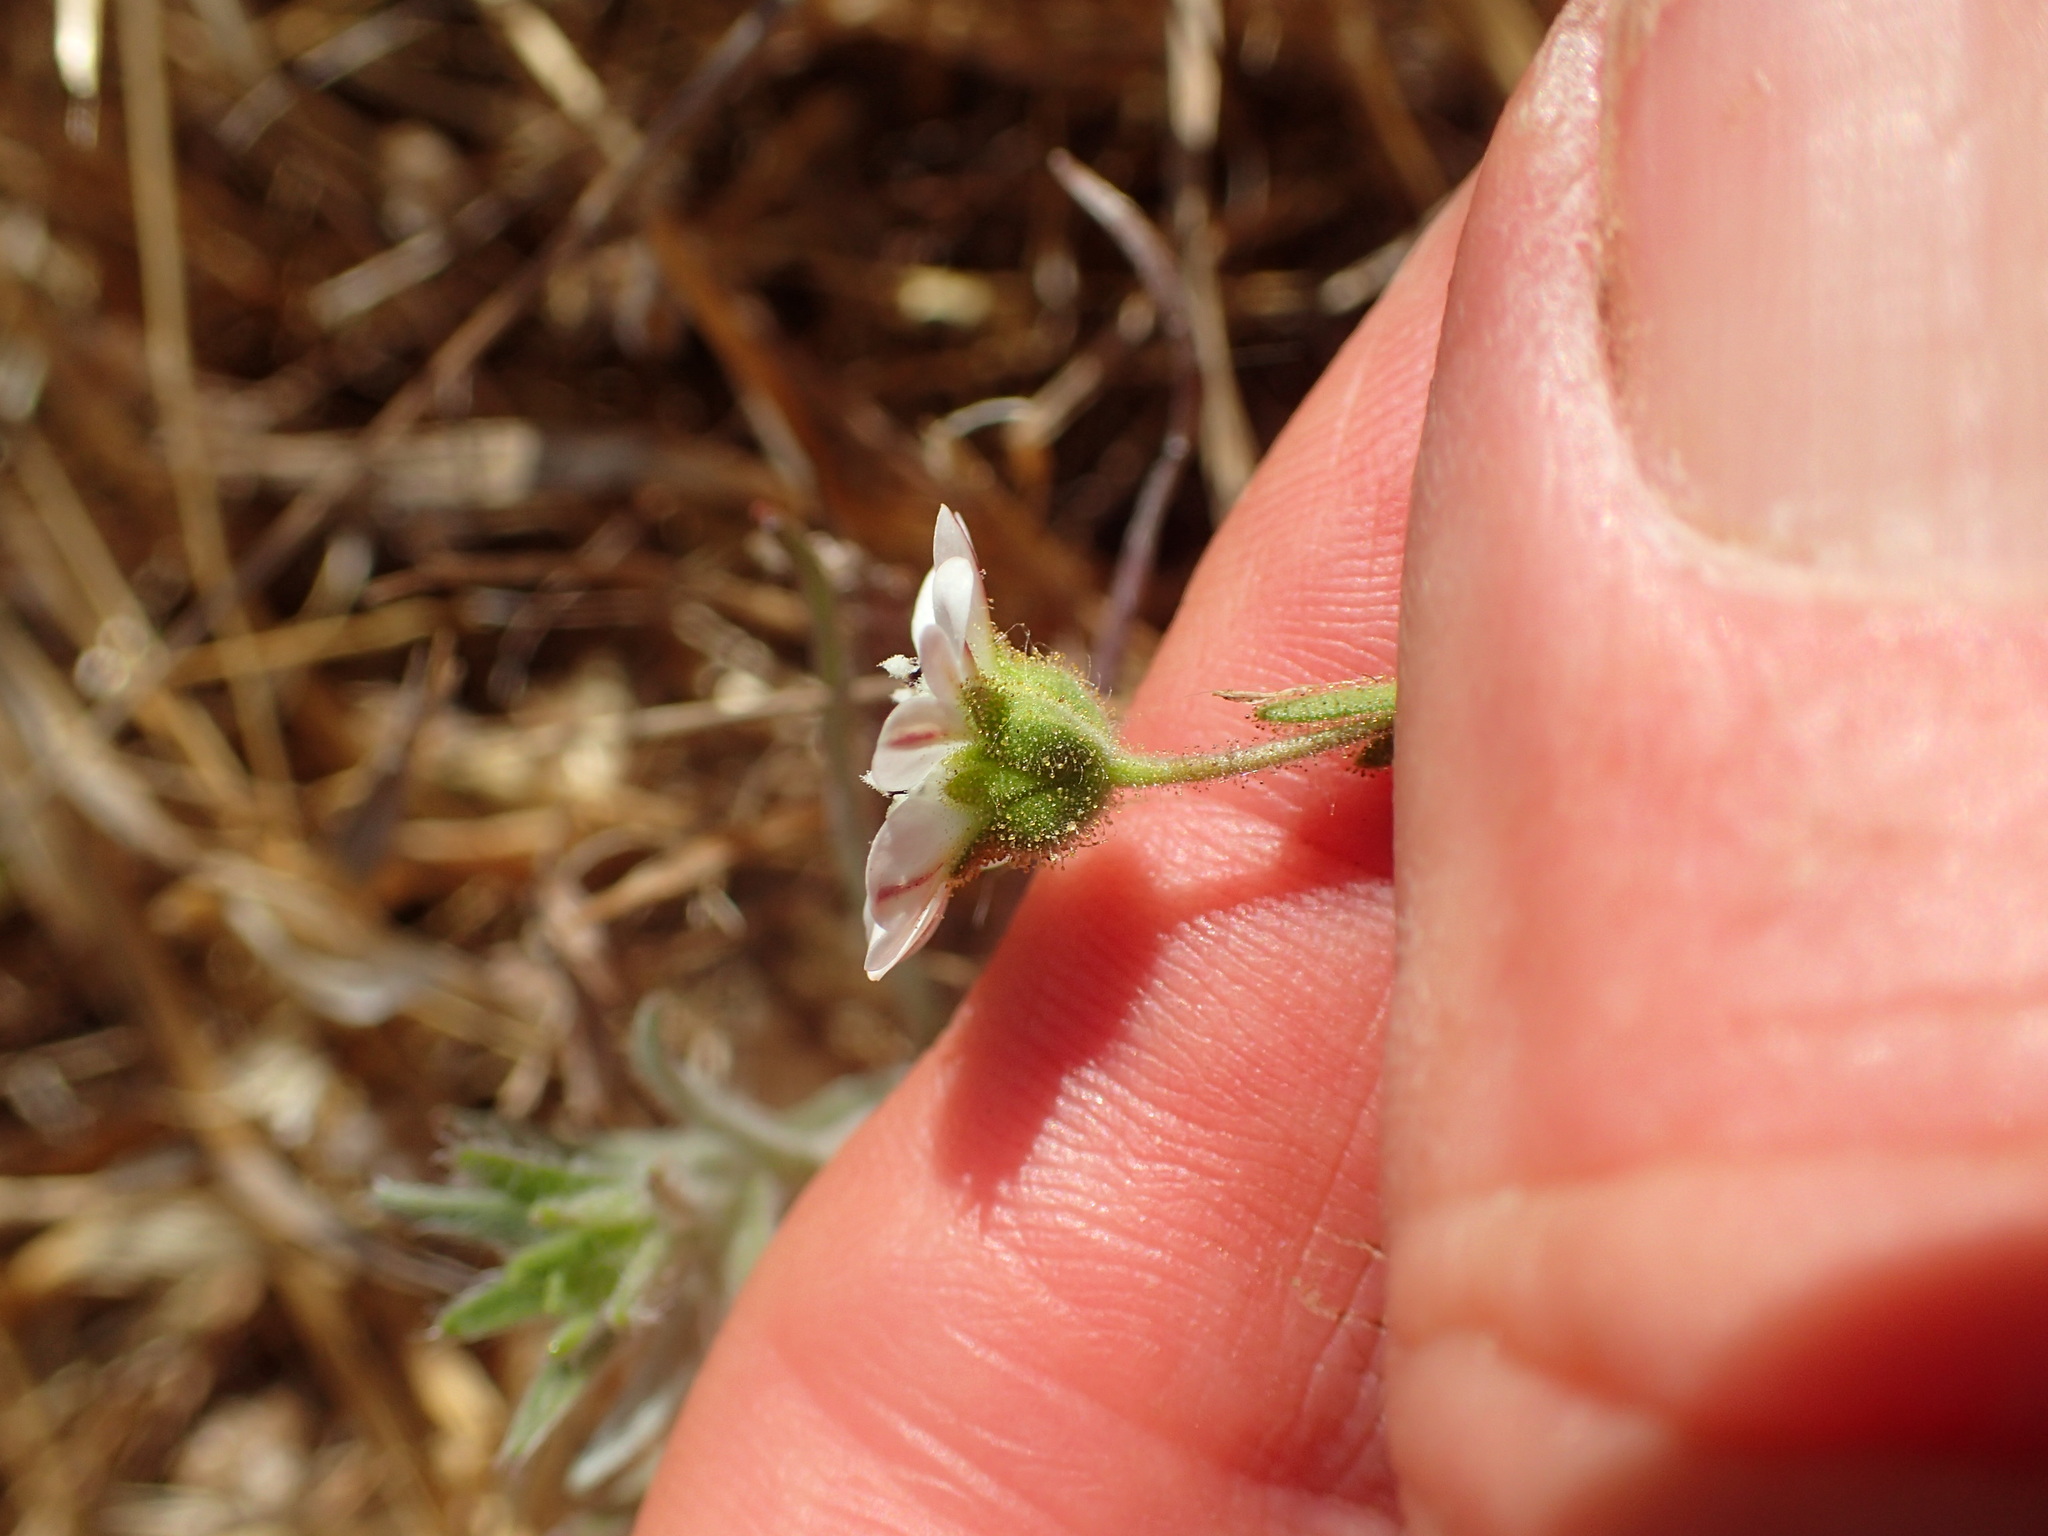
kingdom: Plantae
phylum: Tracheophyta
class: Magnoliopsida
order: Asterales
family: Asteraceae
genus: Hemizonia
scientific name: Hemizonia congesta
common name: Hayfield tarweed
